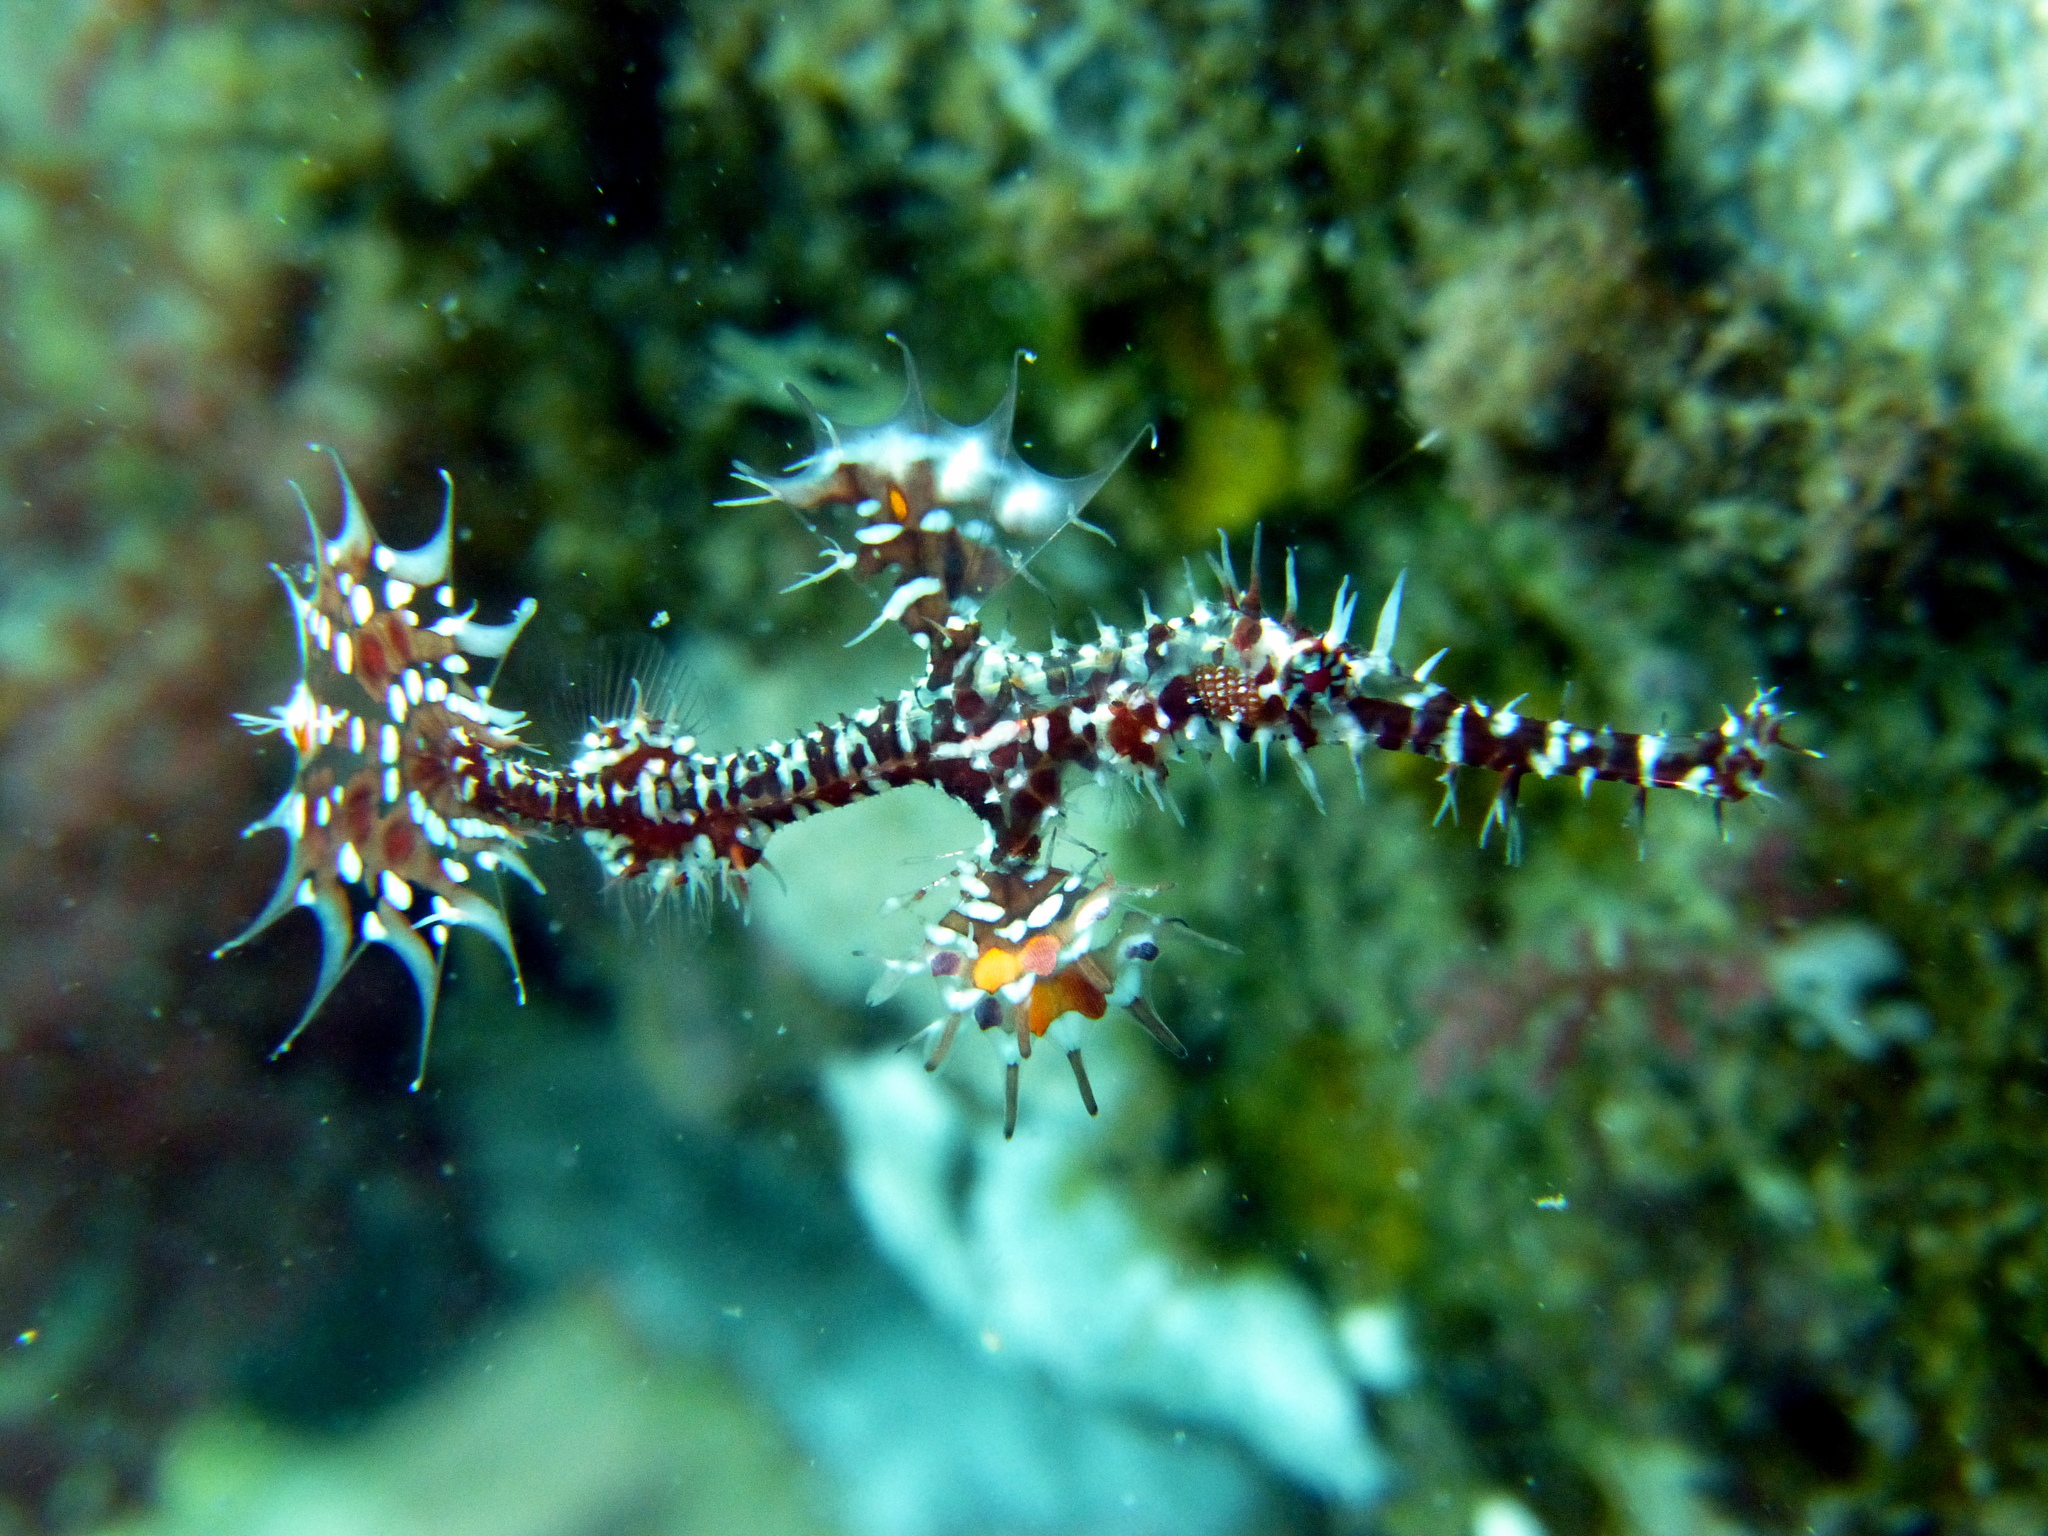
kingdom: Animalia
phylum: Chordata
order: Syngnathiformes
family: Solenostomidae
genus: Solenostomus
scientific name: Solenostomus paradoxus
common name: Ghost pipefish
